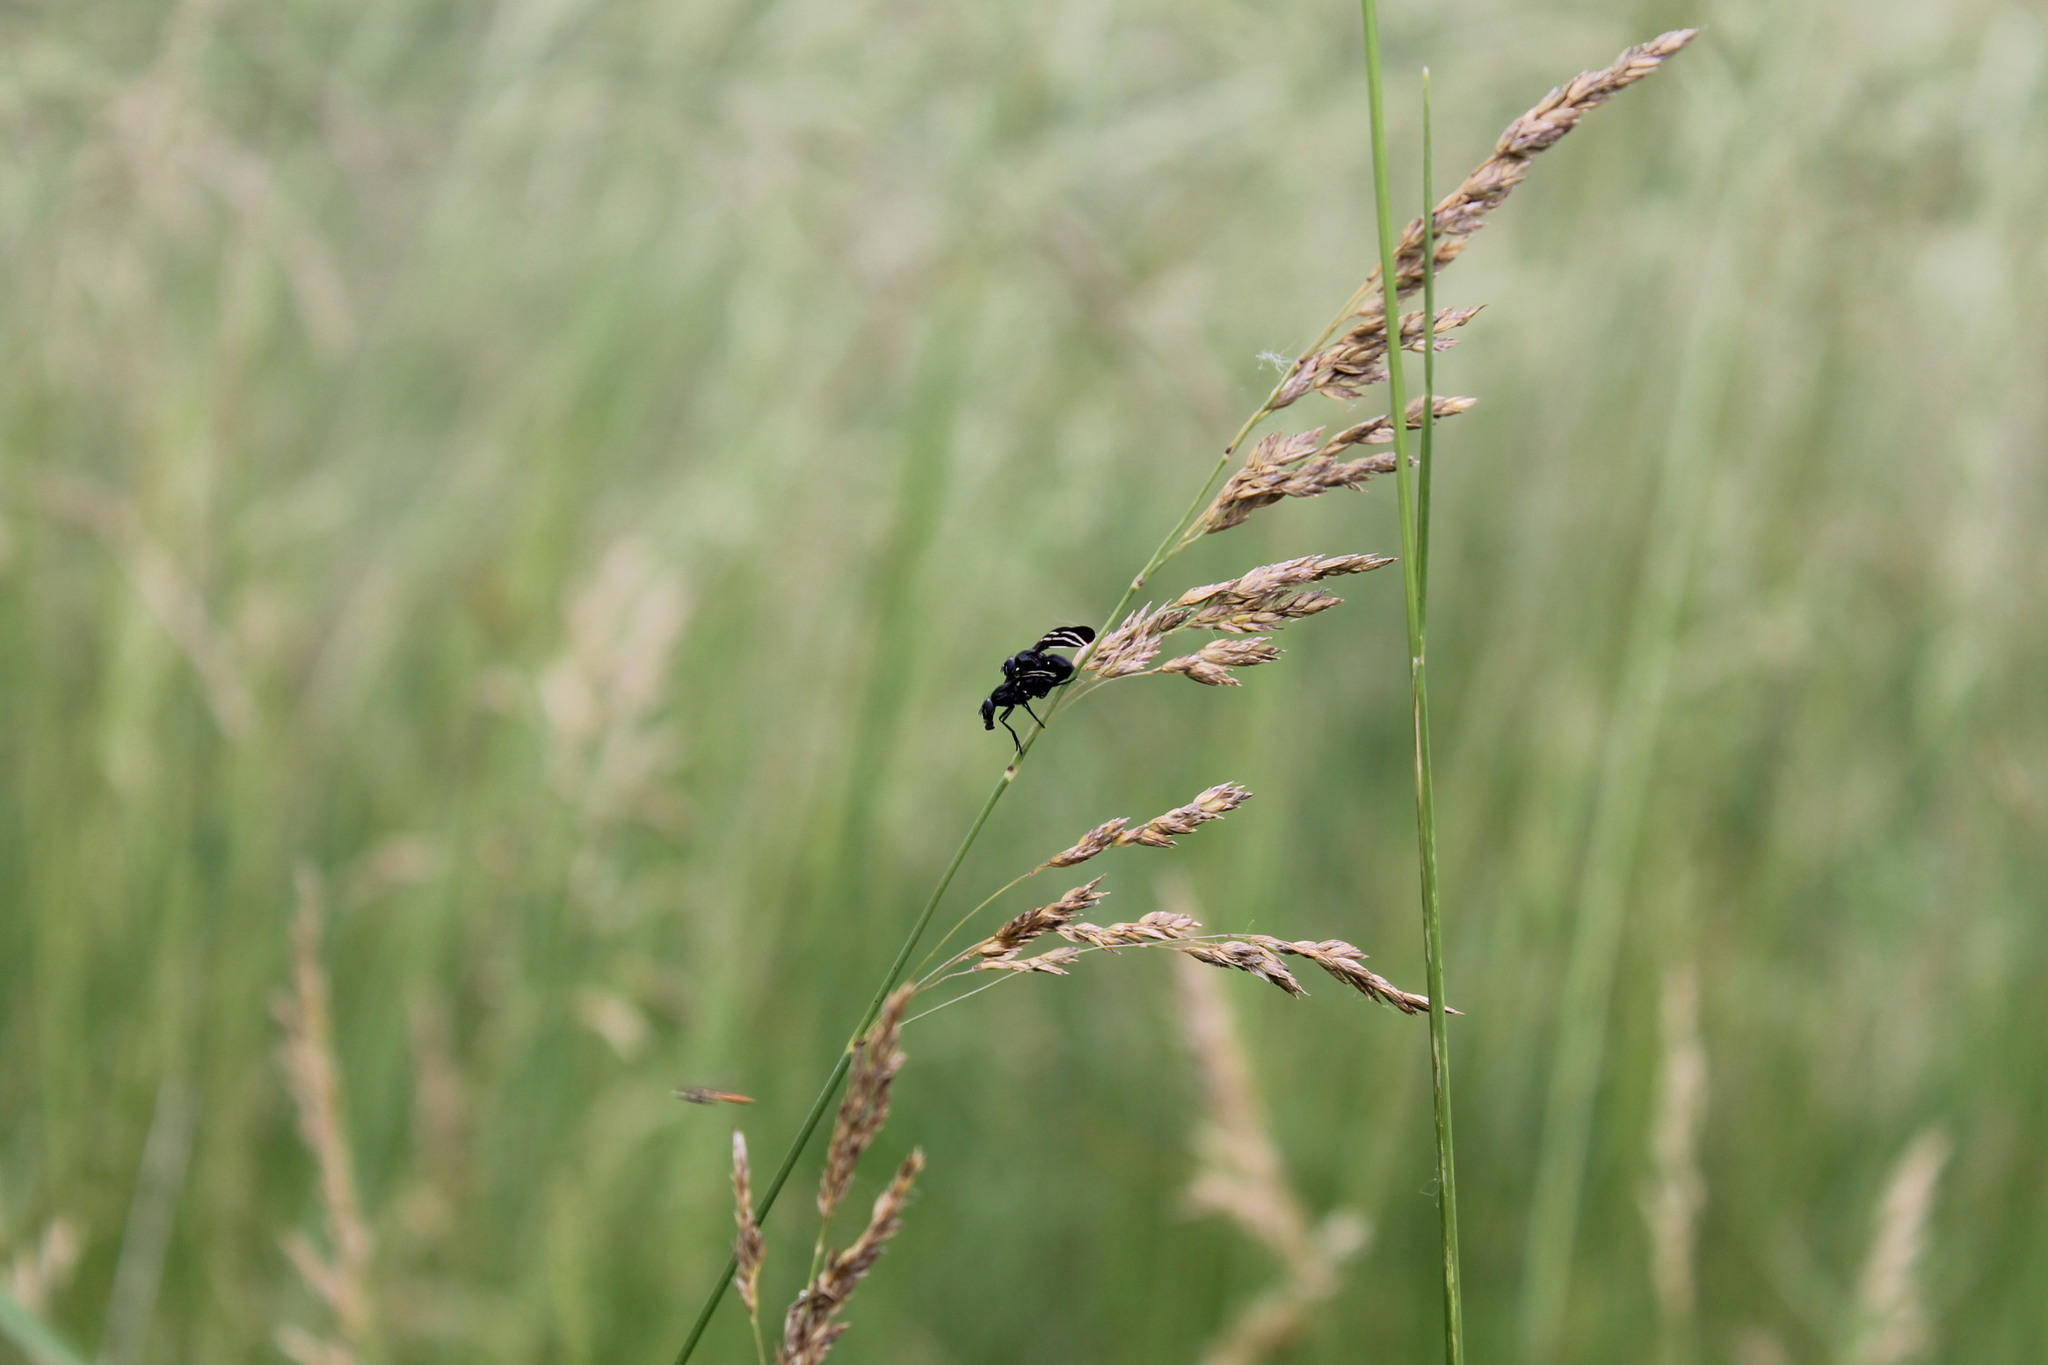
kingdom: Animalia
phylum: Arthropoda
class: Insecta
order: Diptera
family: Ulidiidae
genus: Tritoxa
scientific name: Tritoxa flexa
